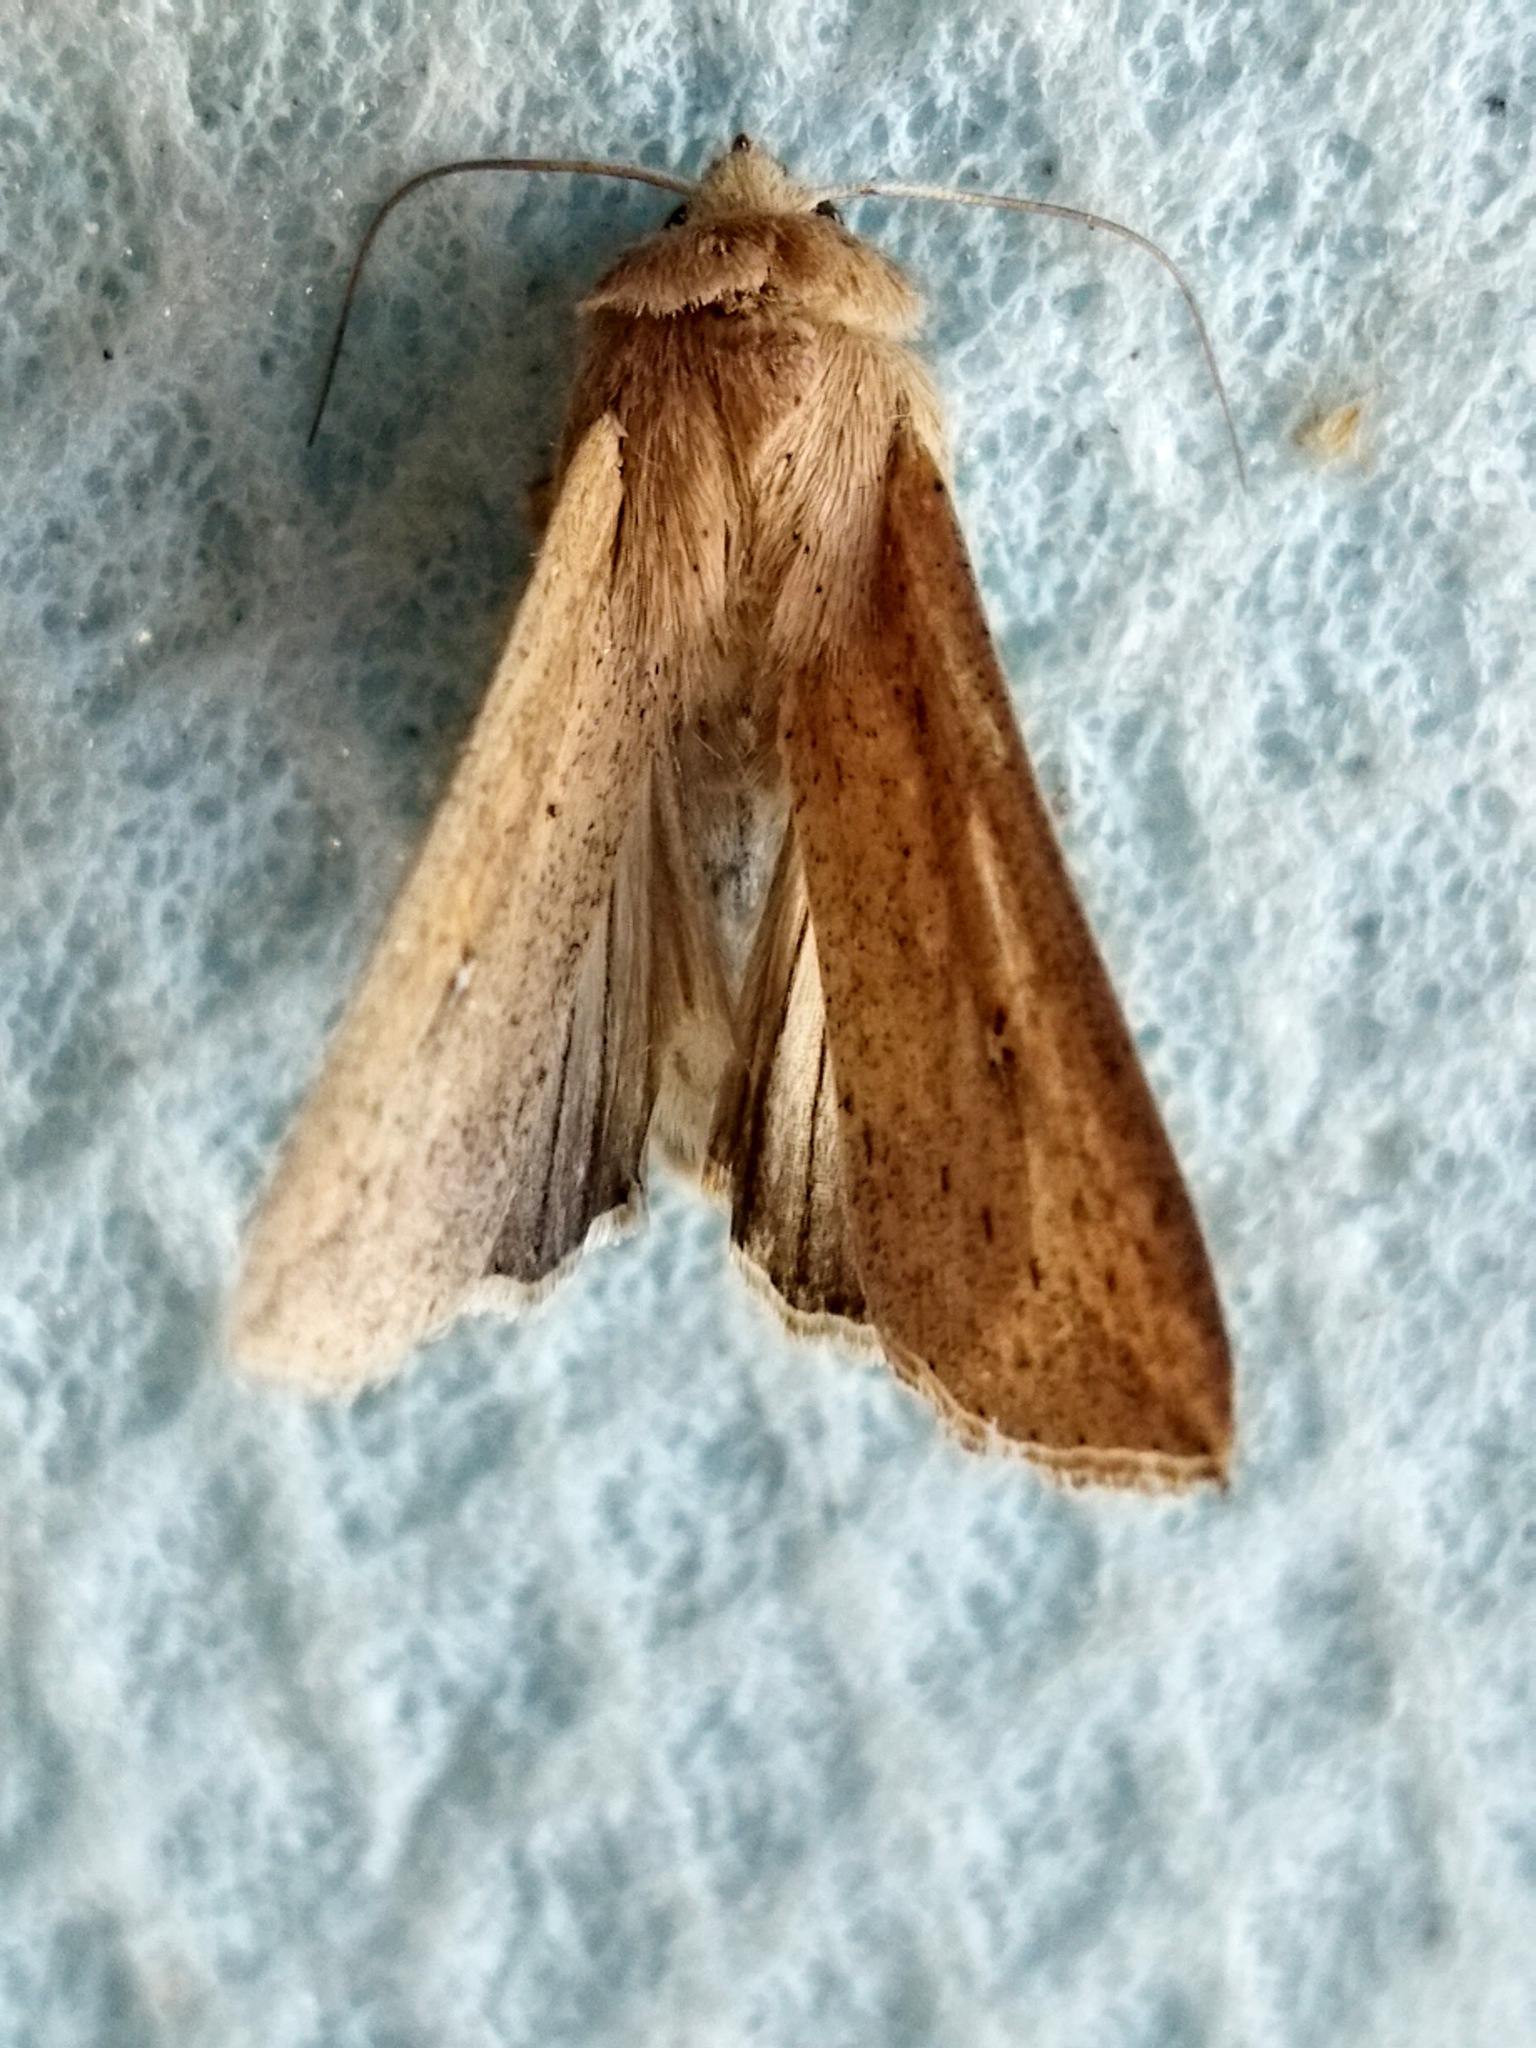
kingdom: Animalia
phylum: Arthropoda
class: Insecta
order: Lepidoptera
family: Noctuidae
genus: Mythimna
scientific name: Mythimna unipuncta
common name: White-speck
